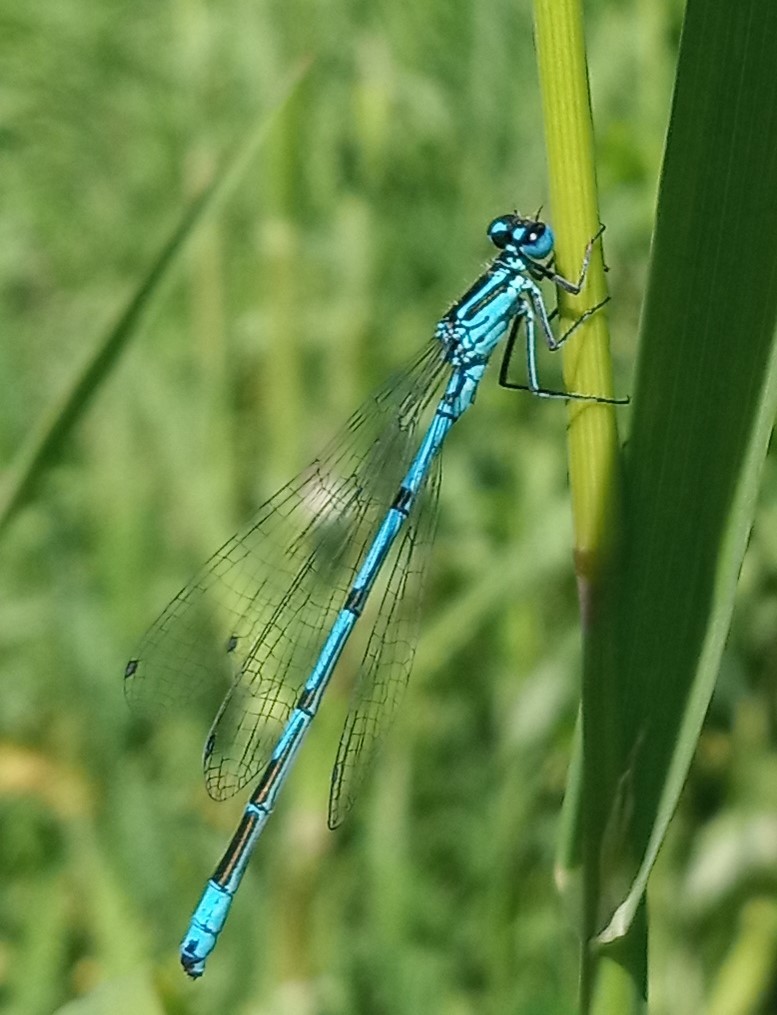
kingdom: Animalia
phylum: Arthropoda
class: Insecta
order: Odonata
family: Coenagrionidae
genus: Coenagrion
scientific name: Coenagrion puella
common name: Azure damselfly
